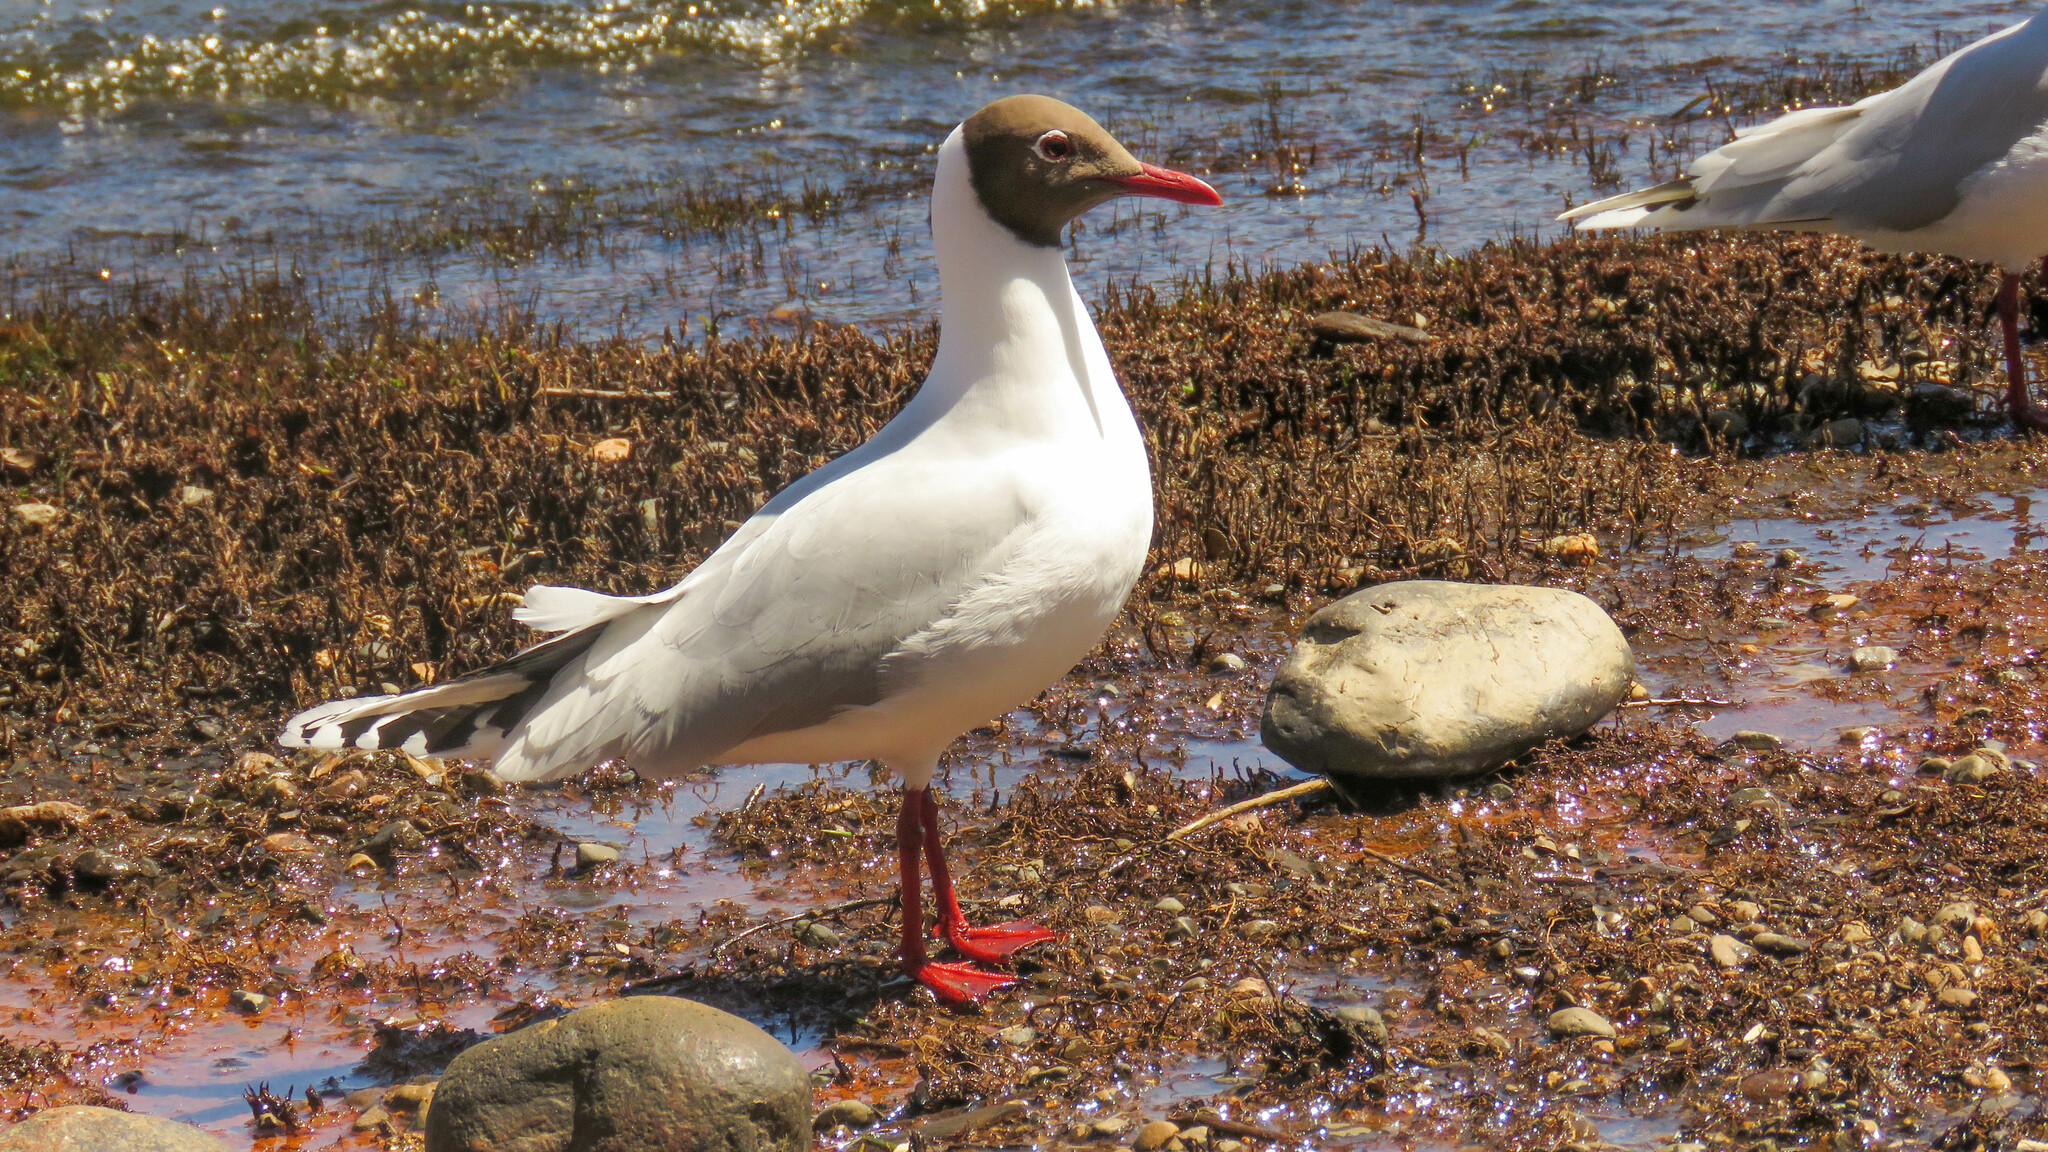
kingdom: Animalia
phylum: Chordata
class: Aves
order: Charadriiformes
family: Laridae
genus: Chroicocephalus
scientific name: Chroicocephalus maculipennis
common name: Brown-hooded gull
